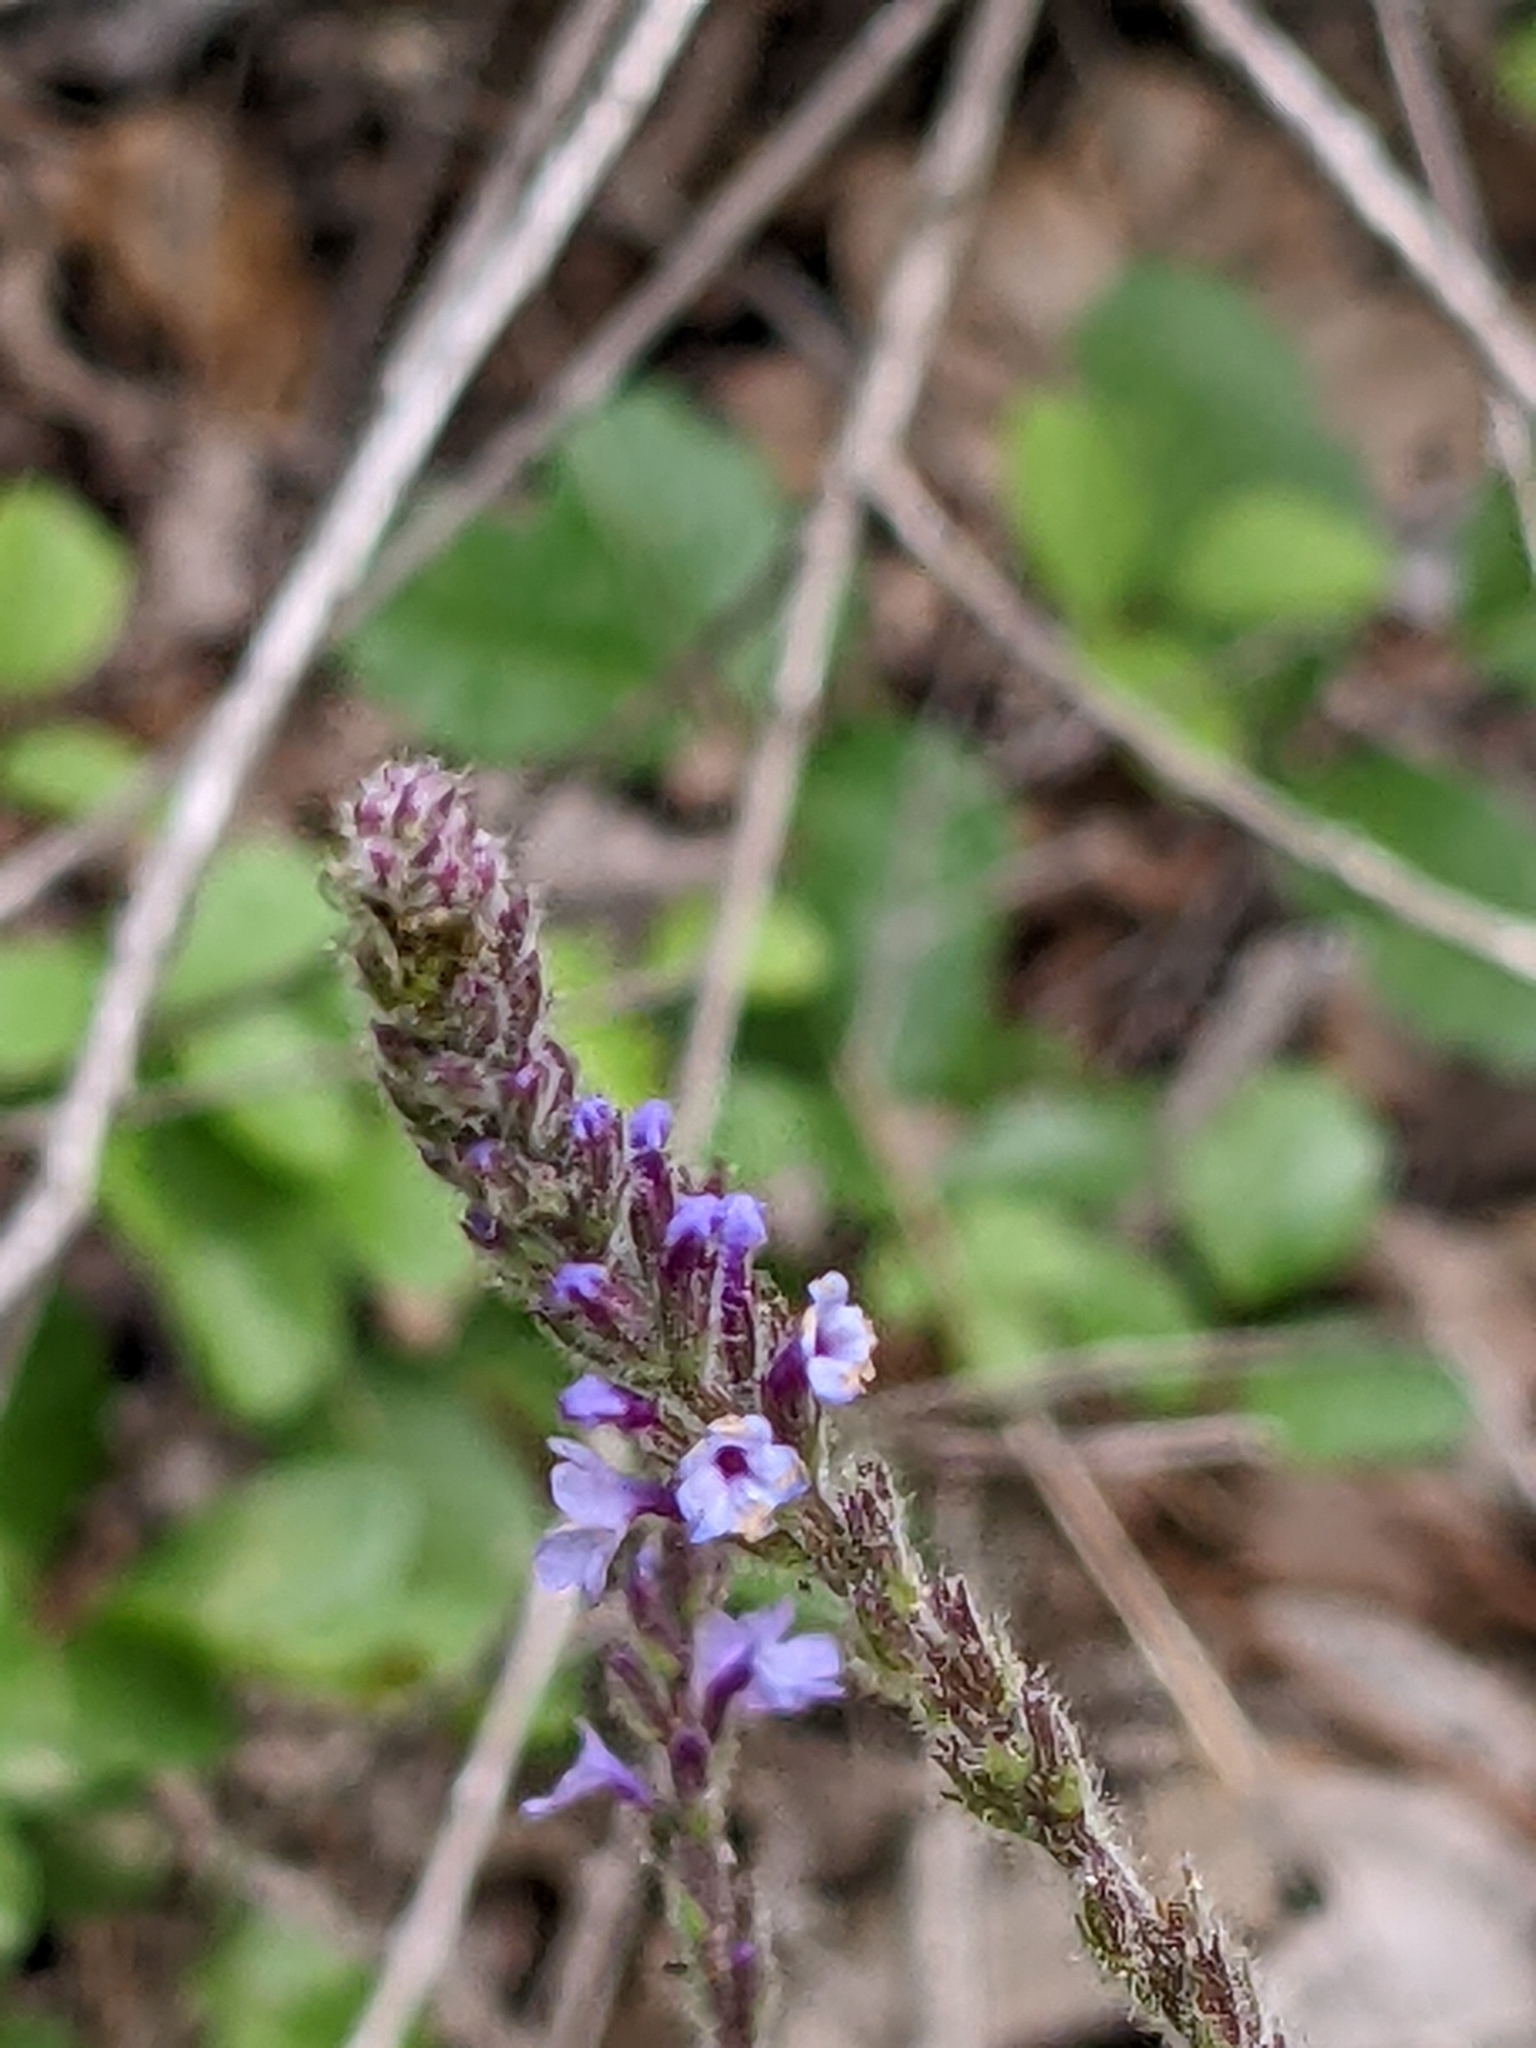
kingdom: Plantae
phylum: Tracheophyta
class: Magnoliopsida
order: Lamiales
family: Verbenaceae
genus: Verbena
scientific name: Verbena lasiostachys
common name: Vervain
